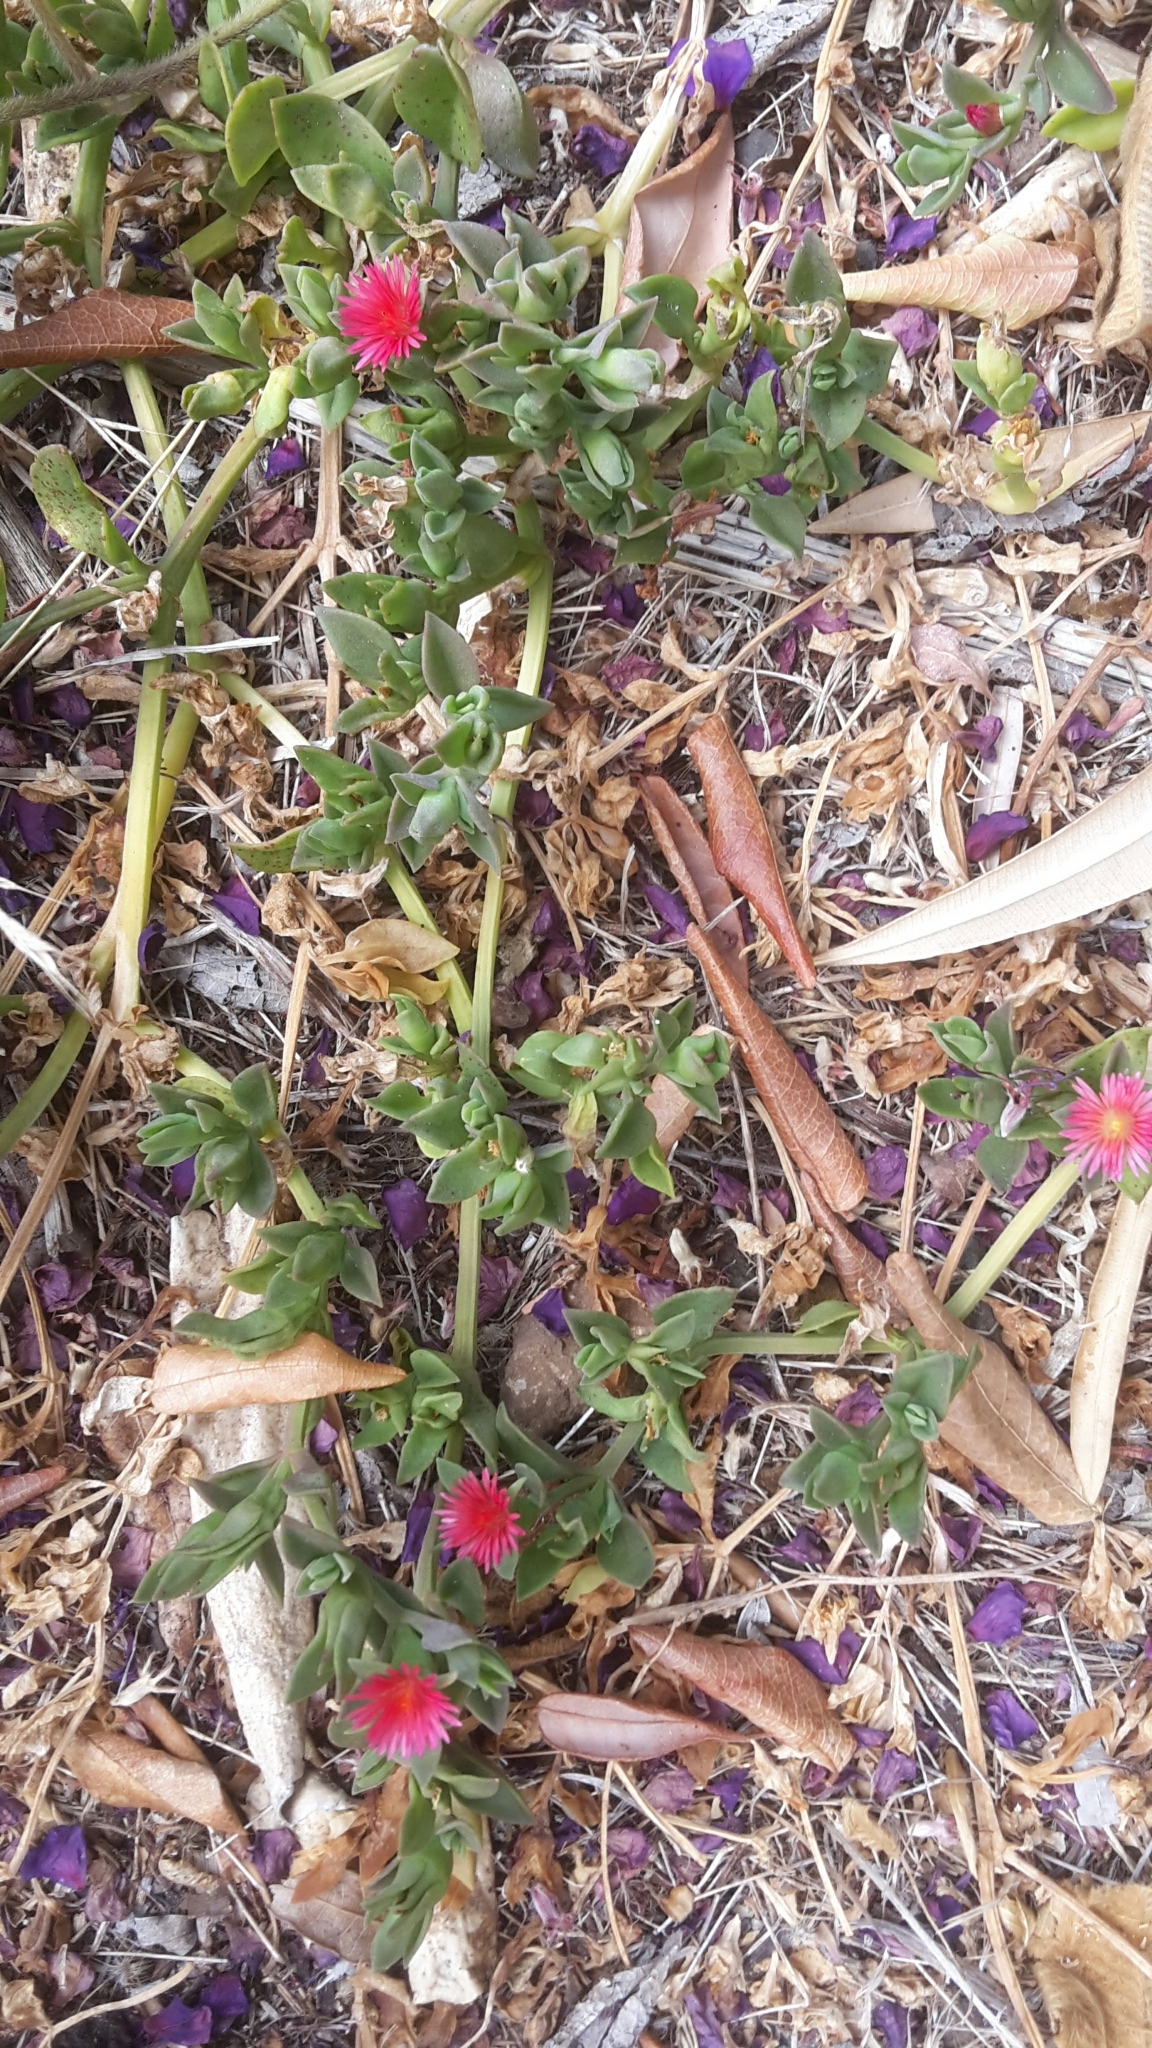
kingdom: Plantae
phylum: Tracheophyta
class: Magnoliopsida
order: Caryophyllales
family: Aizoaceae
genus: Mesembryanthemum
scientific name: Mesembryanthemum cordifolium
